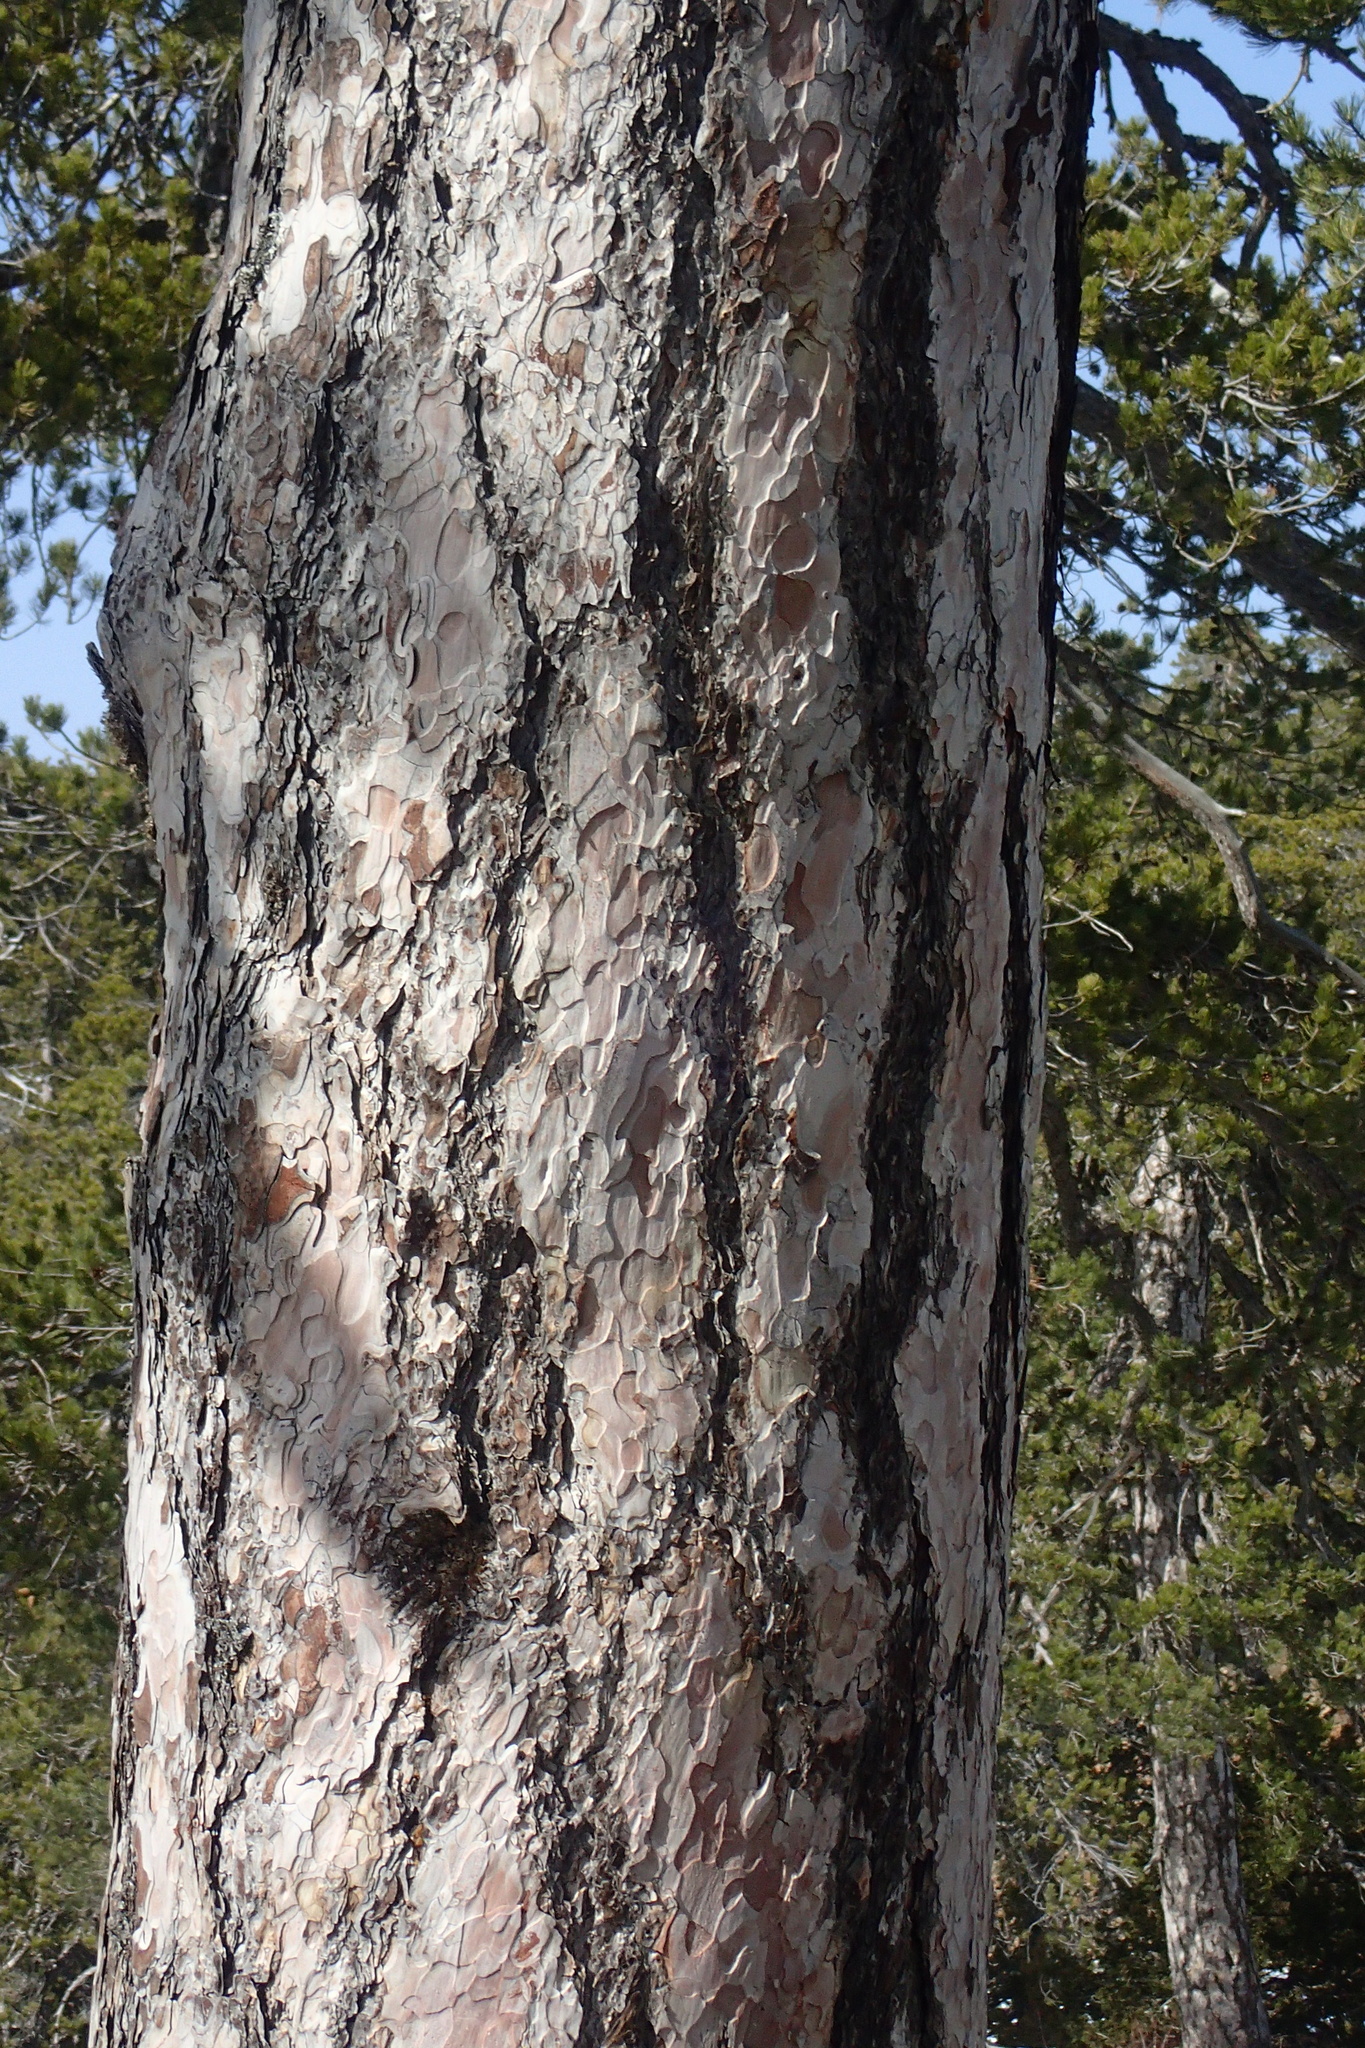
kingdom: Plantae
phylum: Tracheophyta
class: Pinopsida
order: Pinales
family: Pinaceae
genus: Pinus
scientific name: Pinus nigra
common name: Austrian pine
